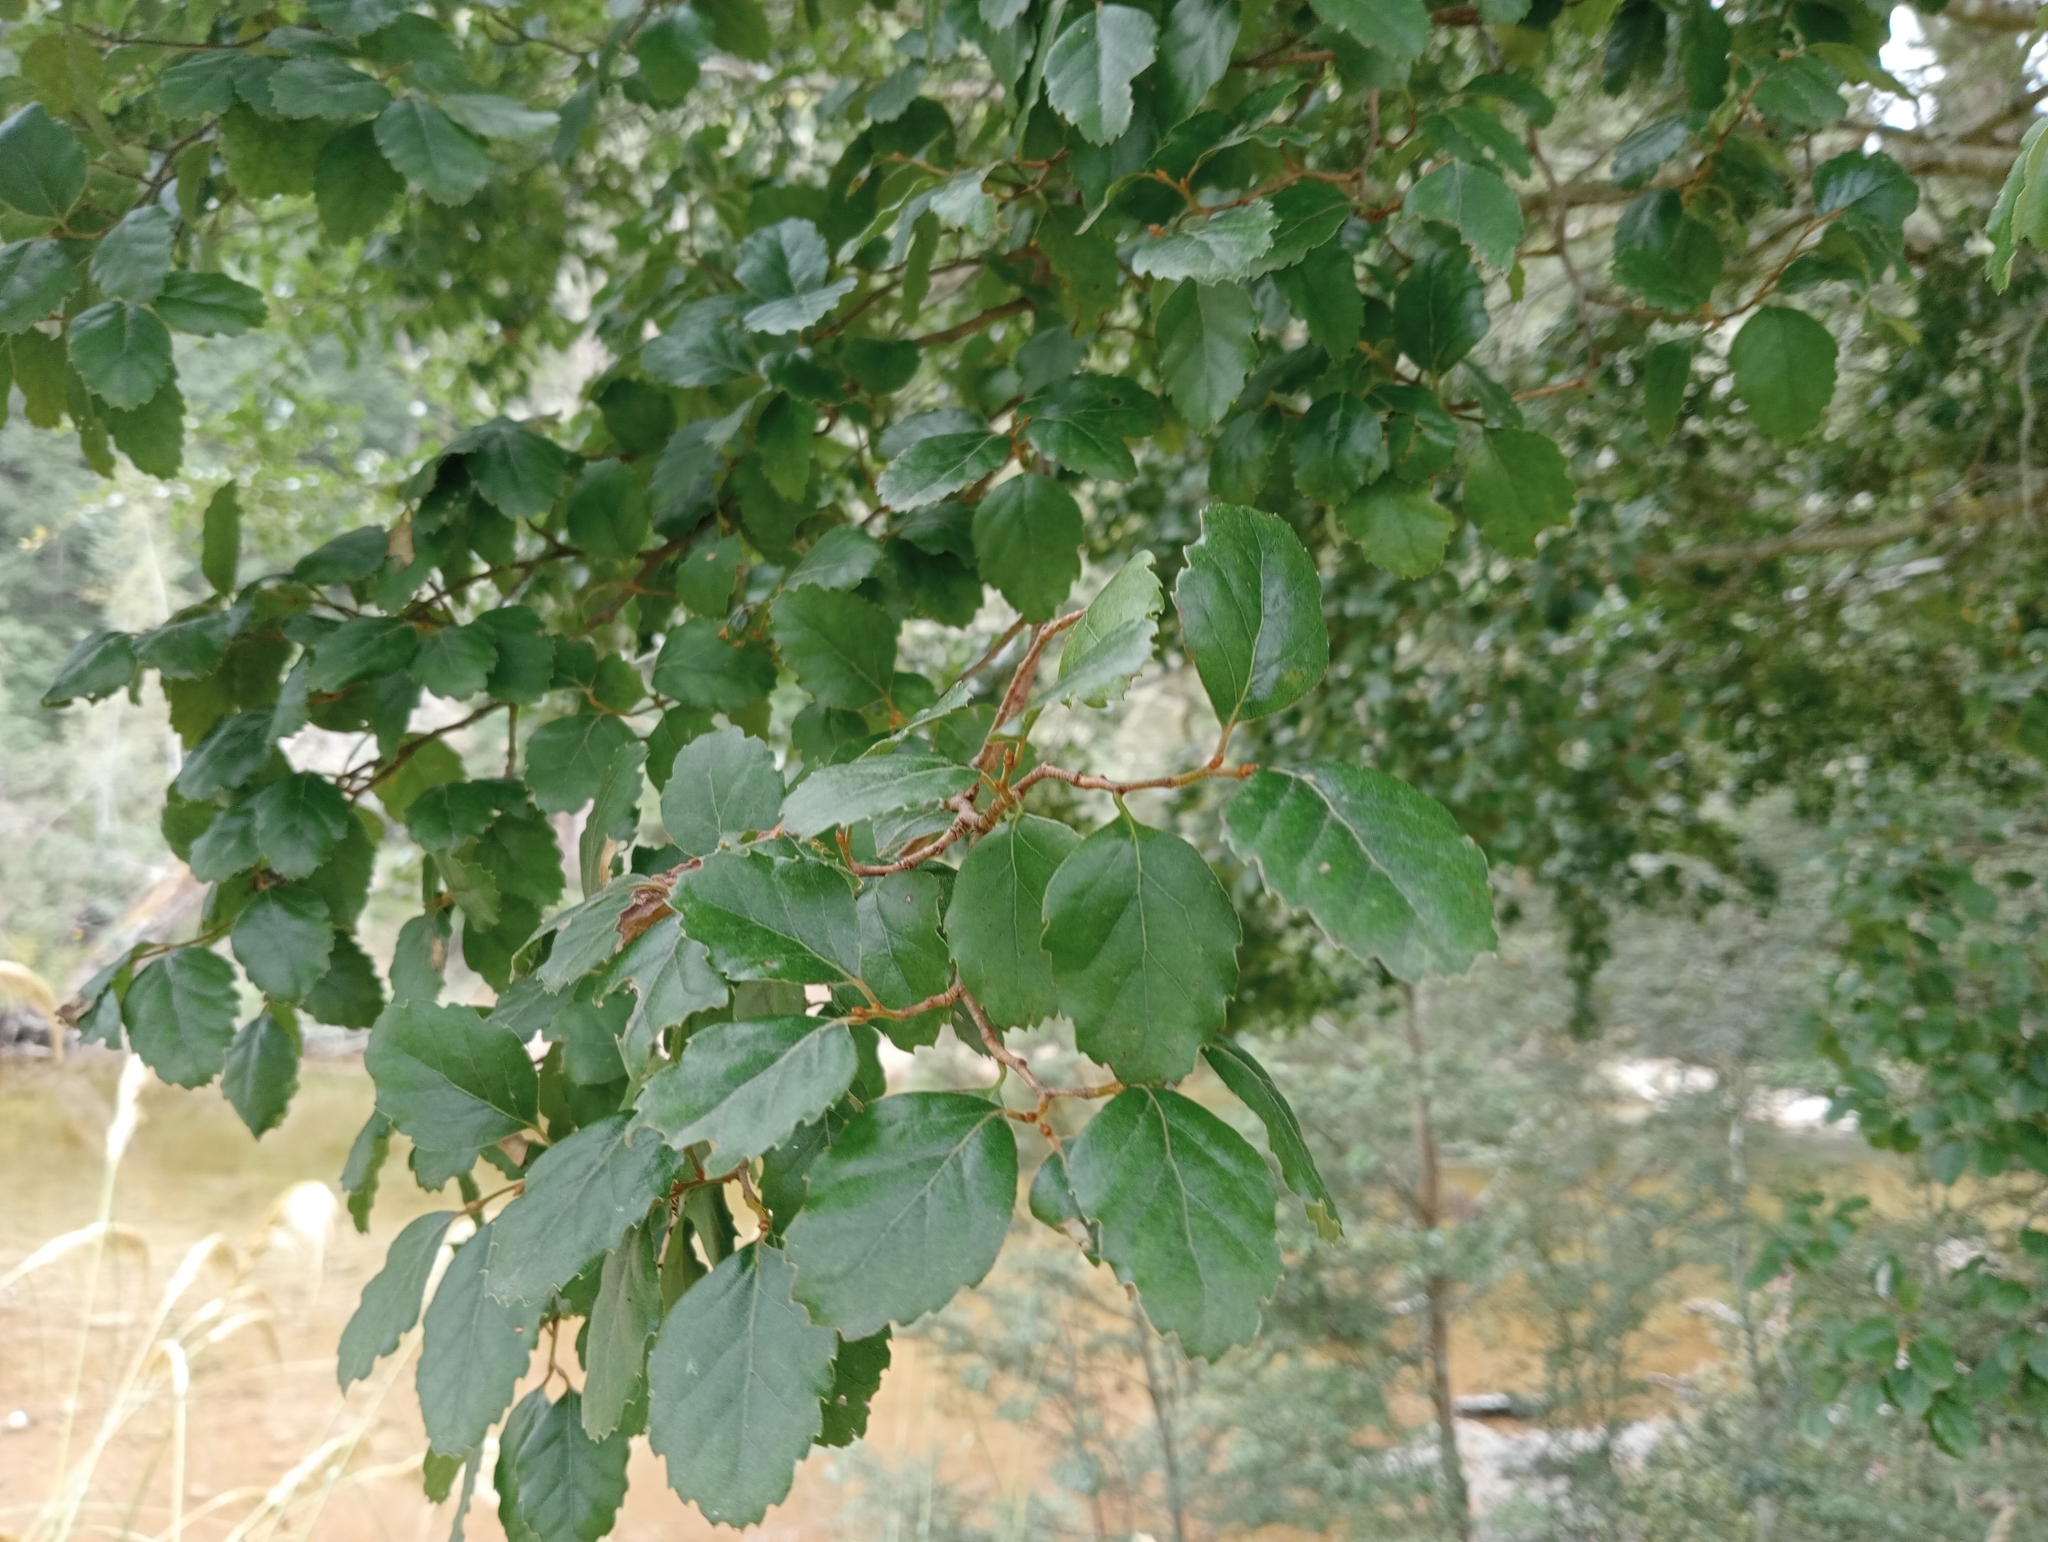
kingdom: Plantae
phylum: Tracheophyta
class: Magnoliopsida
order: Fagales
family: Nothofagaceae
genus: Nothofagus
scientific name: Nothofagus fusca
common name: Red beech
